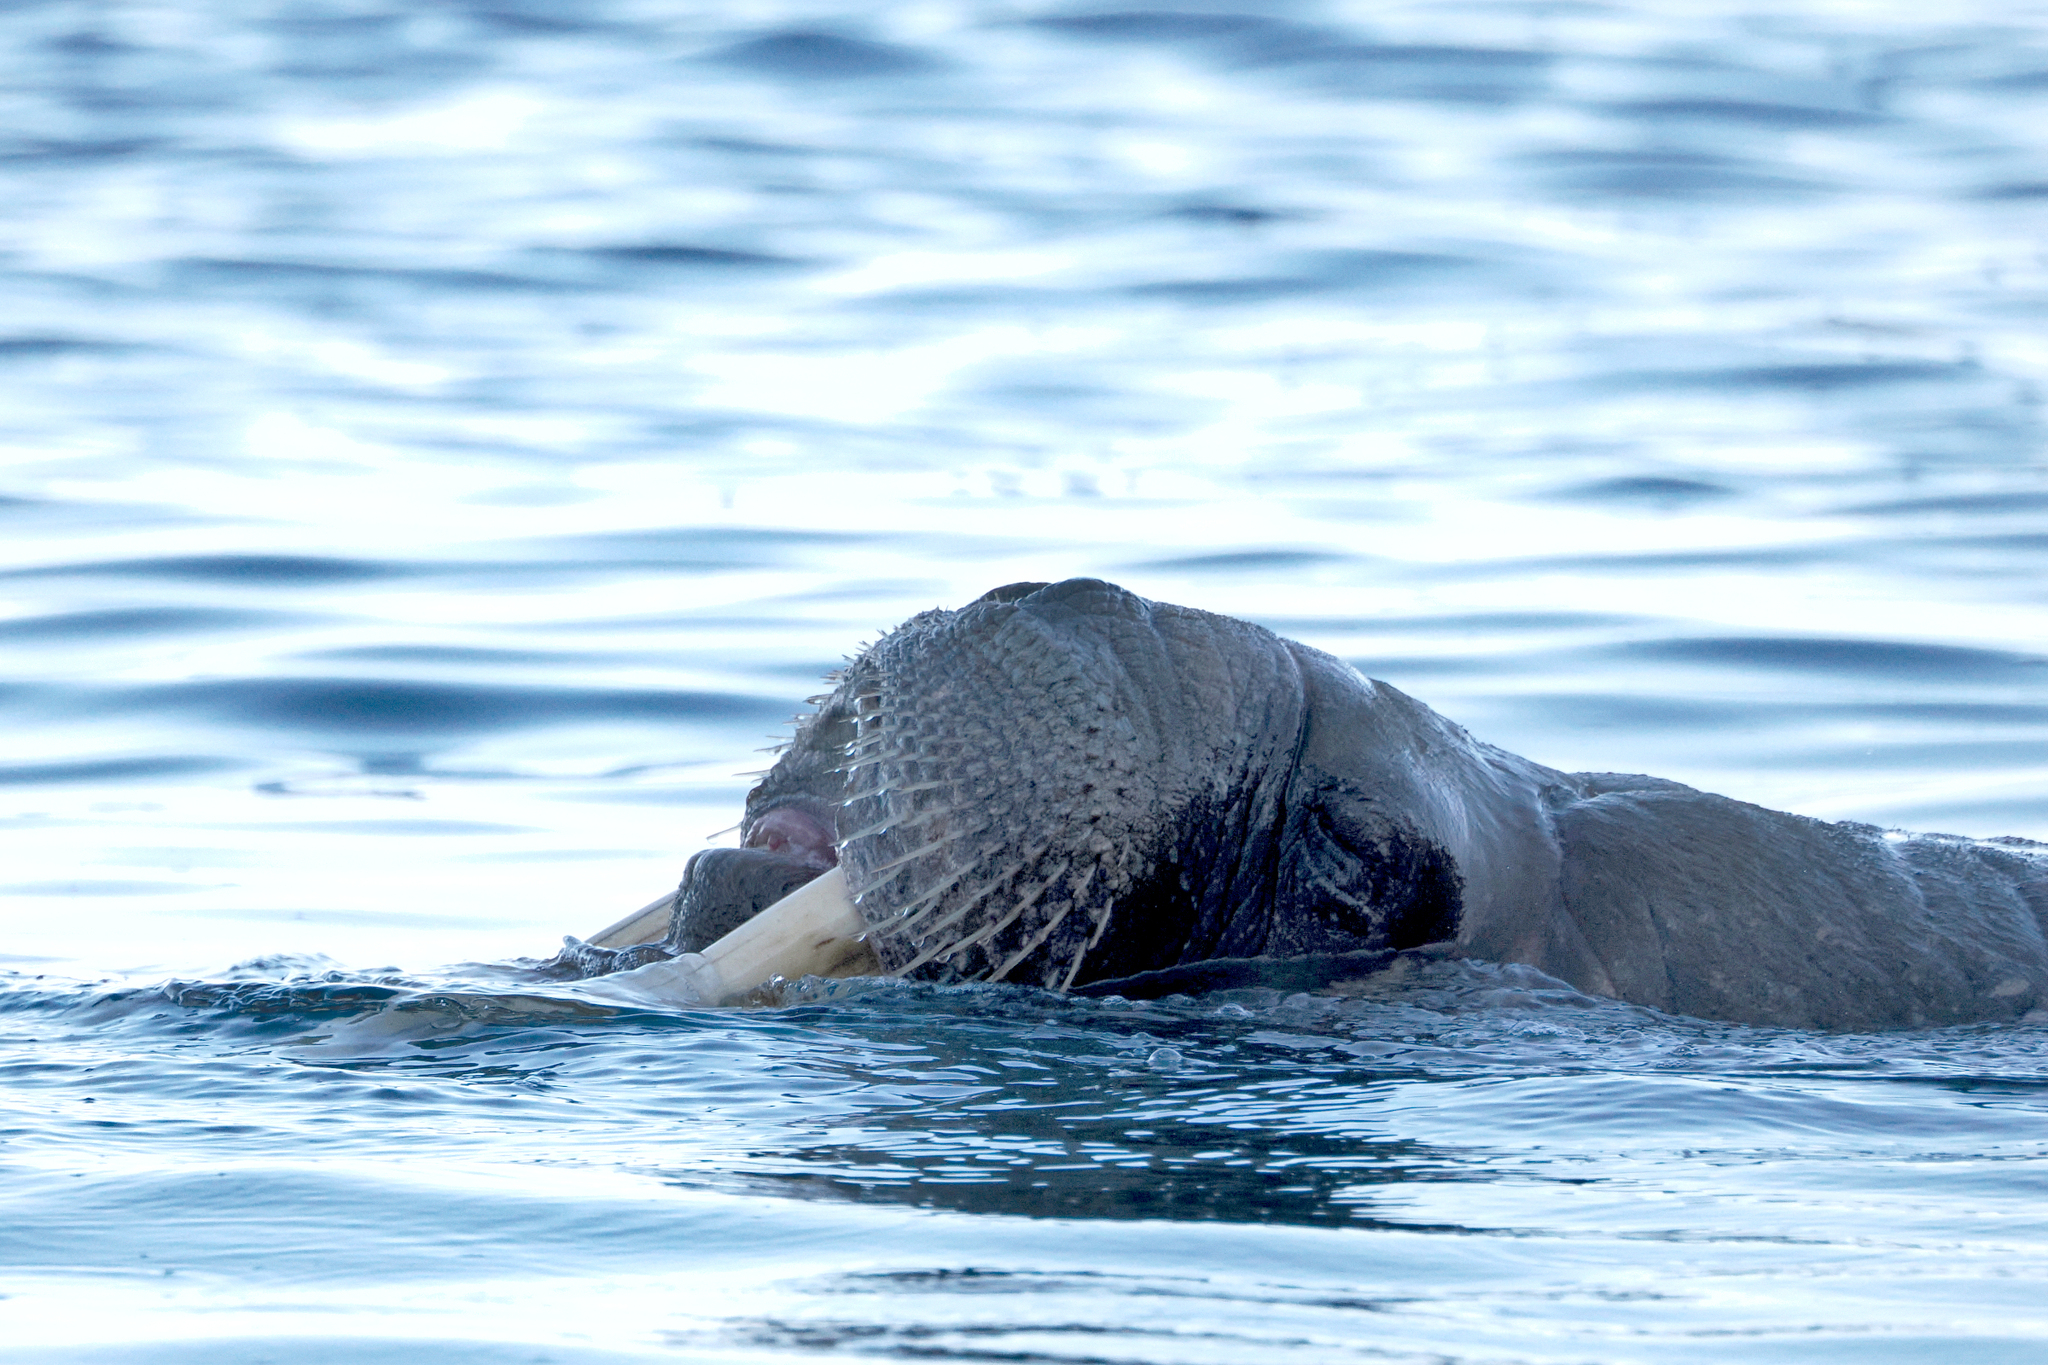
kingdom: Animalia
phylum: Chordata
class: Mammalia
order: Carnivora
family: Odobenidae
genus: Odobenus
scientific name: Odobenus rosmarus
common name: Walrus
